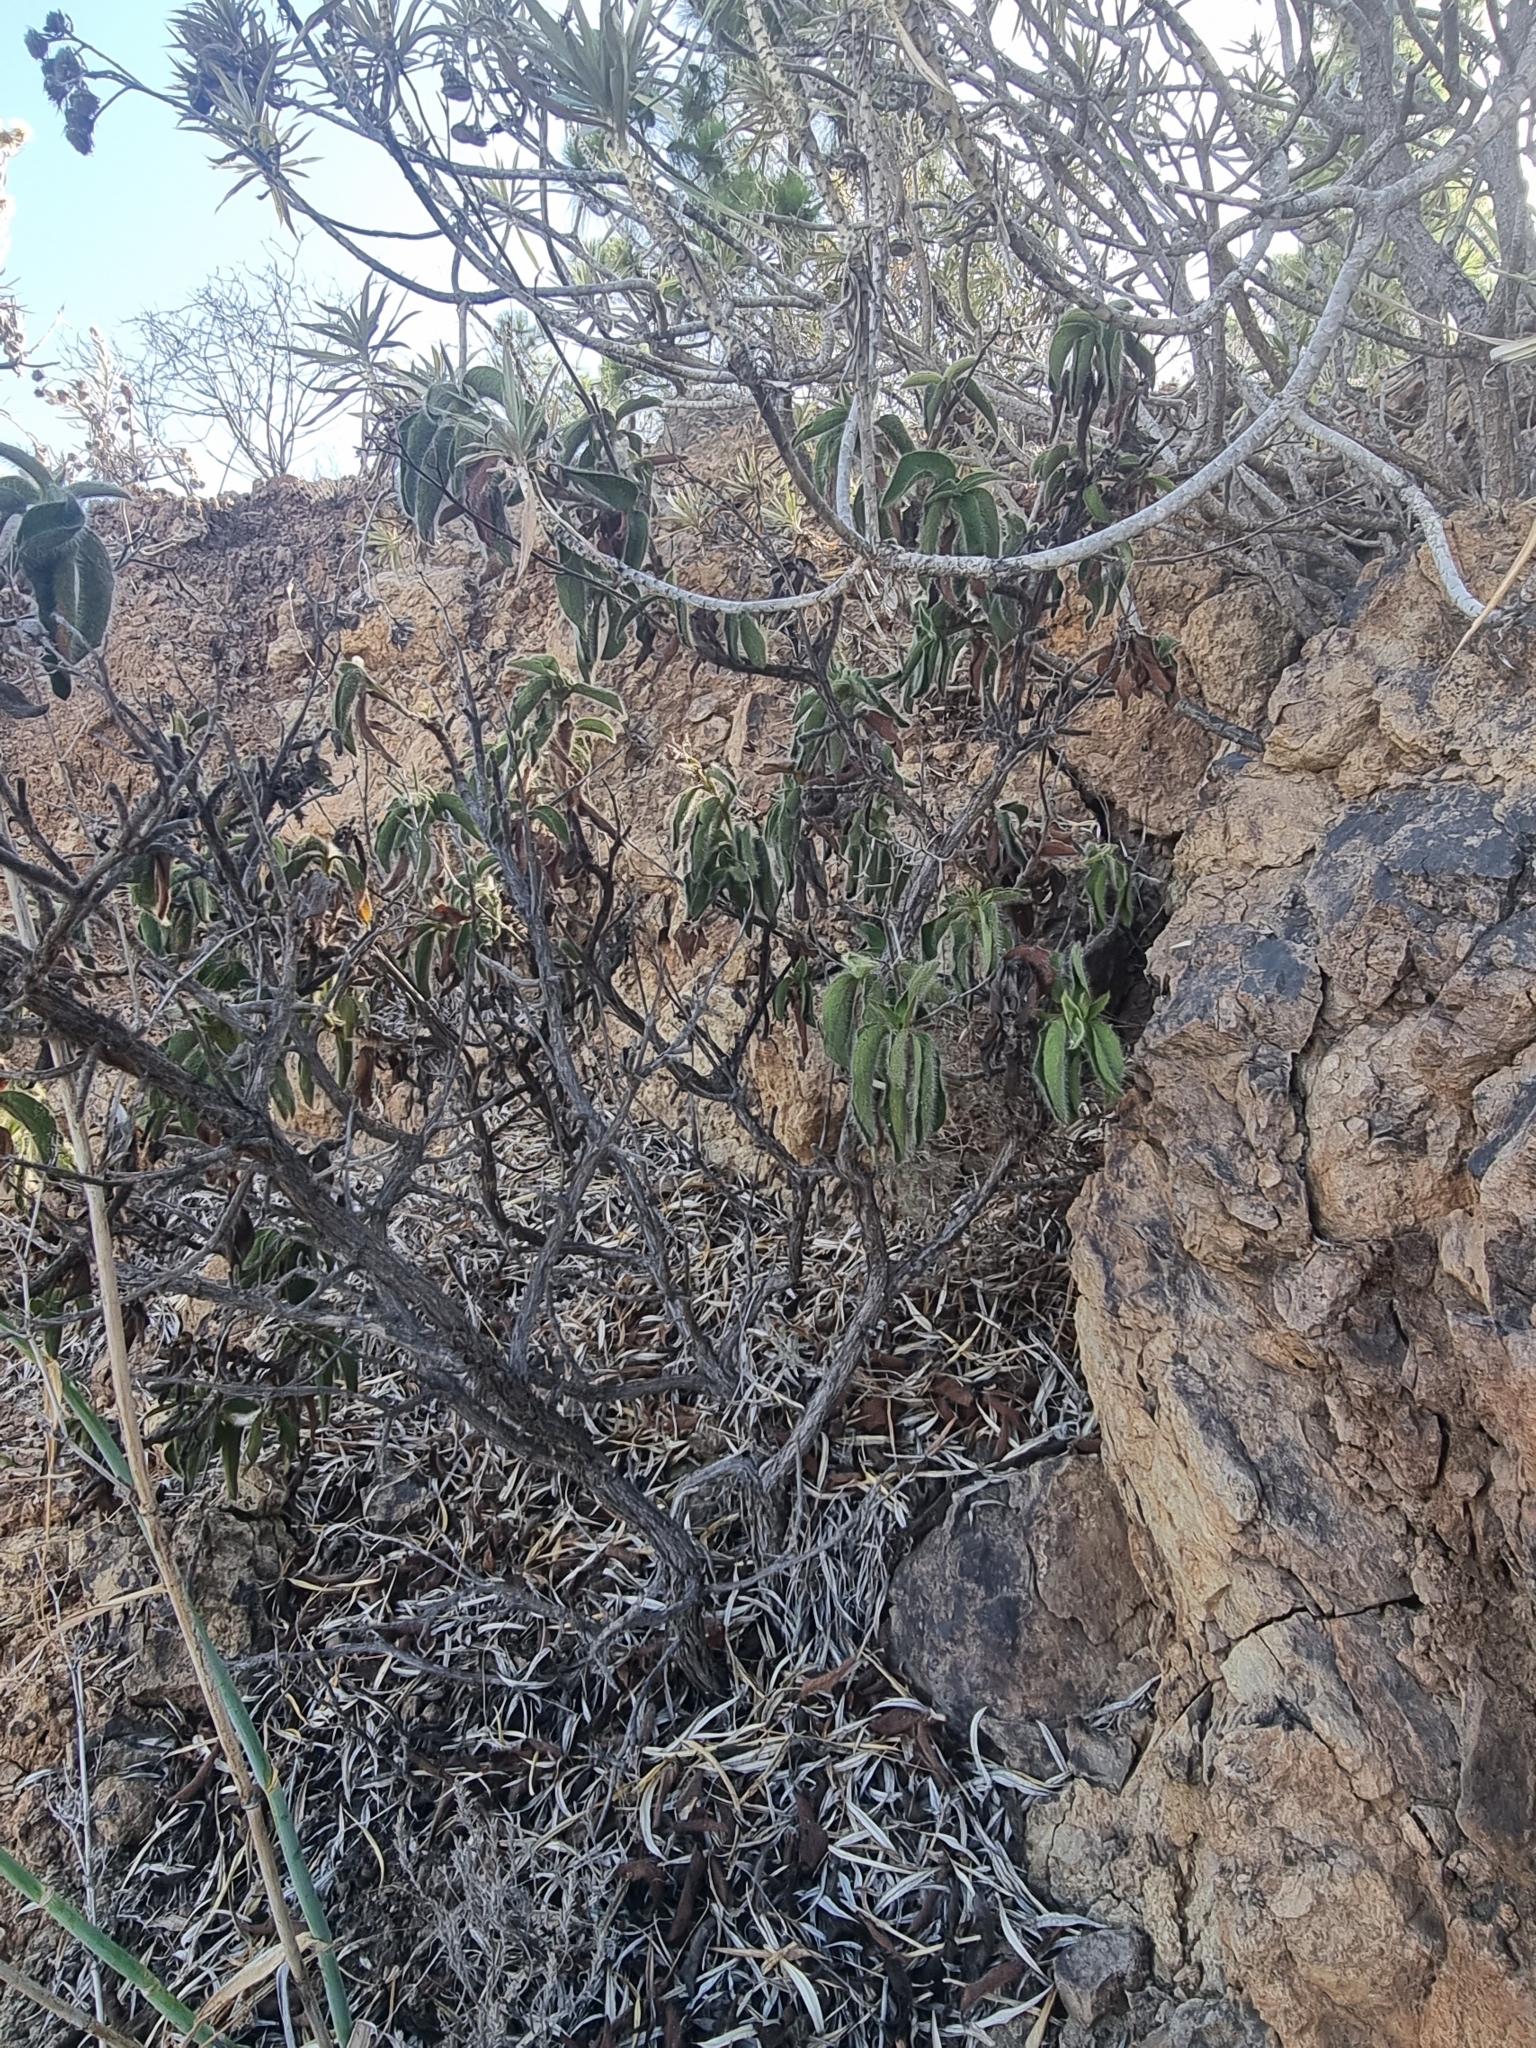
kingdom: Plantae
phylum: Tracheophyta
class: Magnoliopsida
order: Malvales
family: Cistaceae
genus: Cistus
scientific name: Cistus horrens
